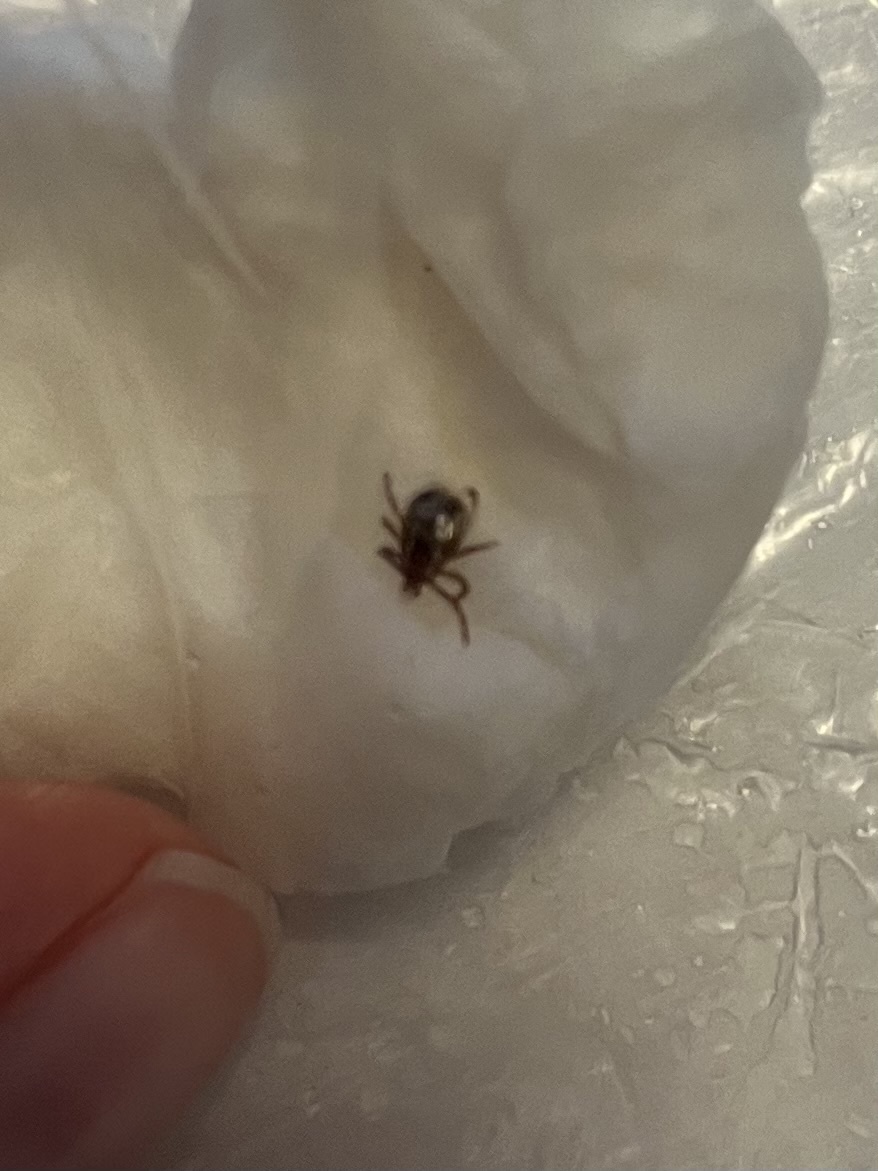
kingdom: Animalia
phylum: Arthropoda
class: Arachnida
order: Ixodida
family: Ixodidae
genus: Dermacentor
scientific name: Dermacentor variabilis
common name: American dog tick
